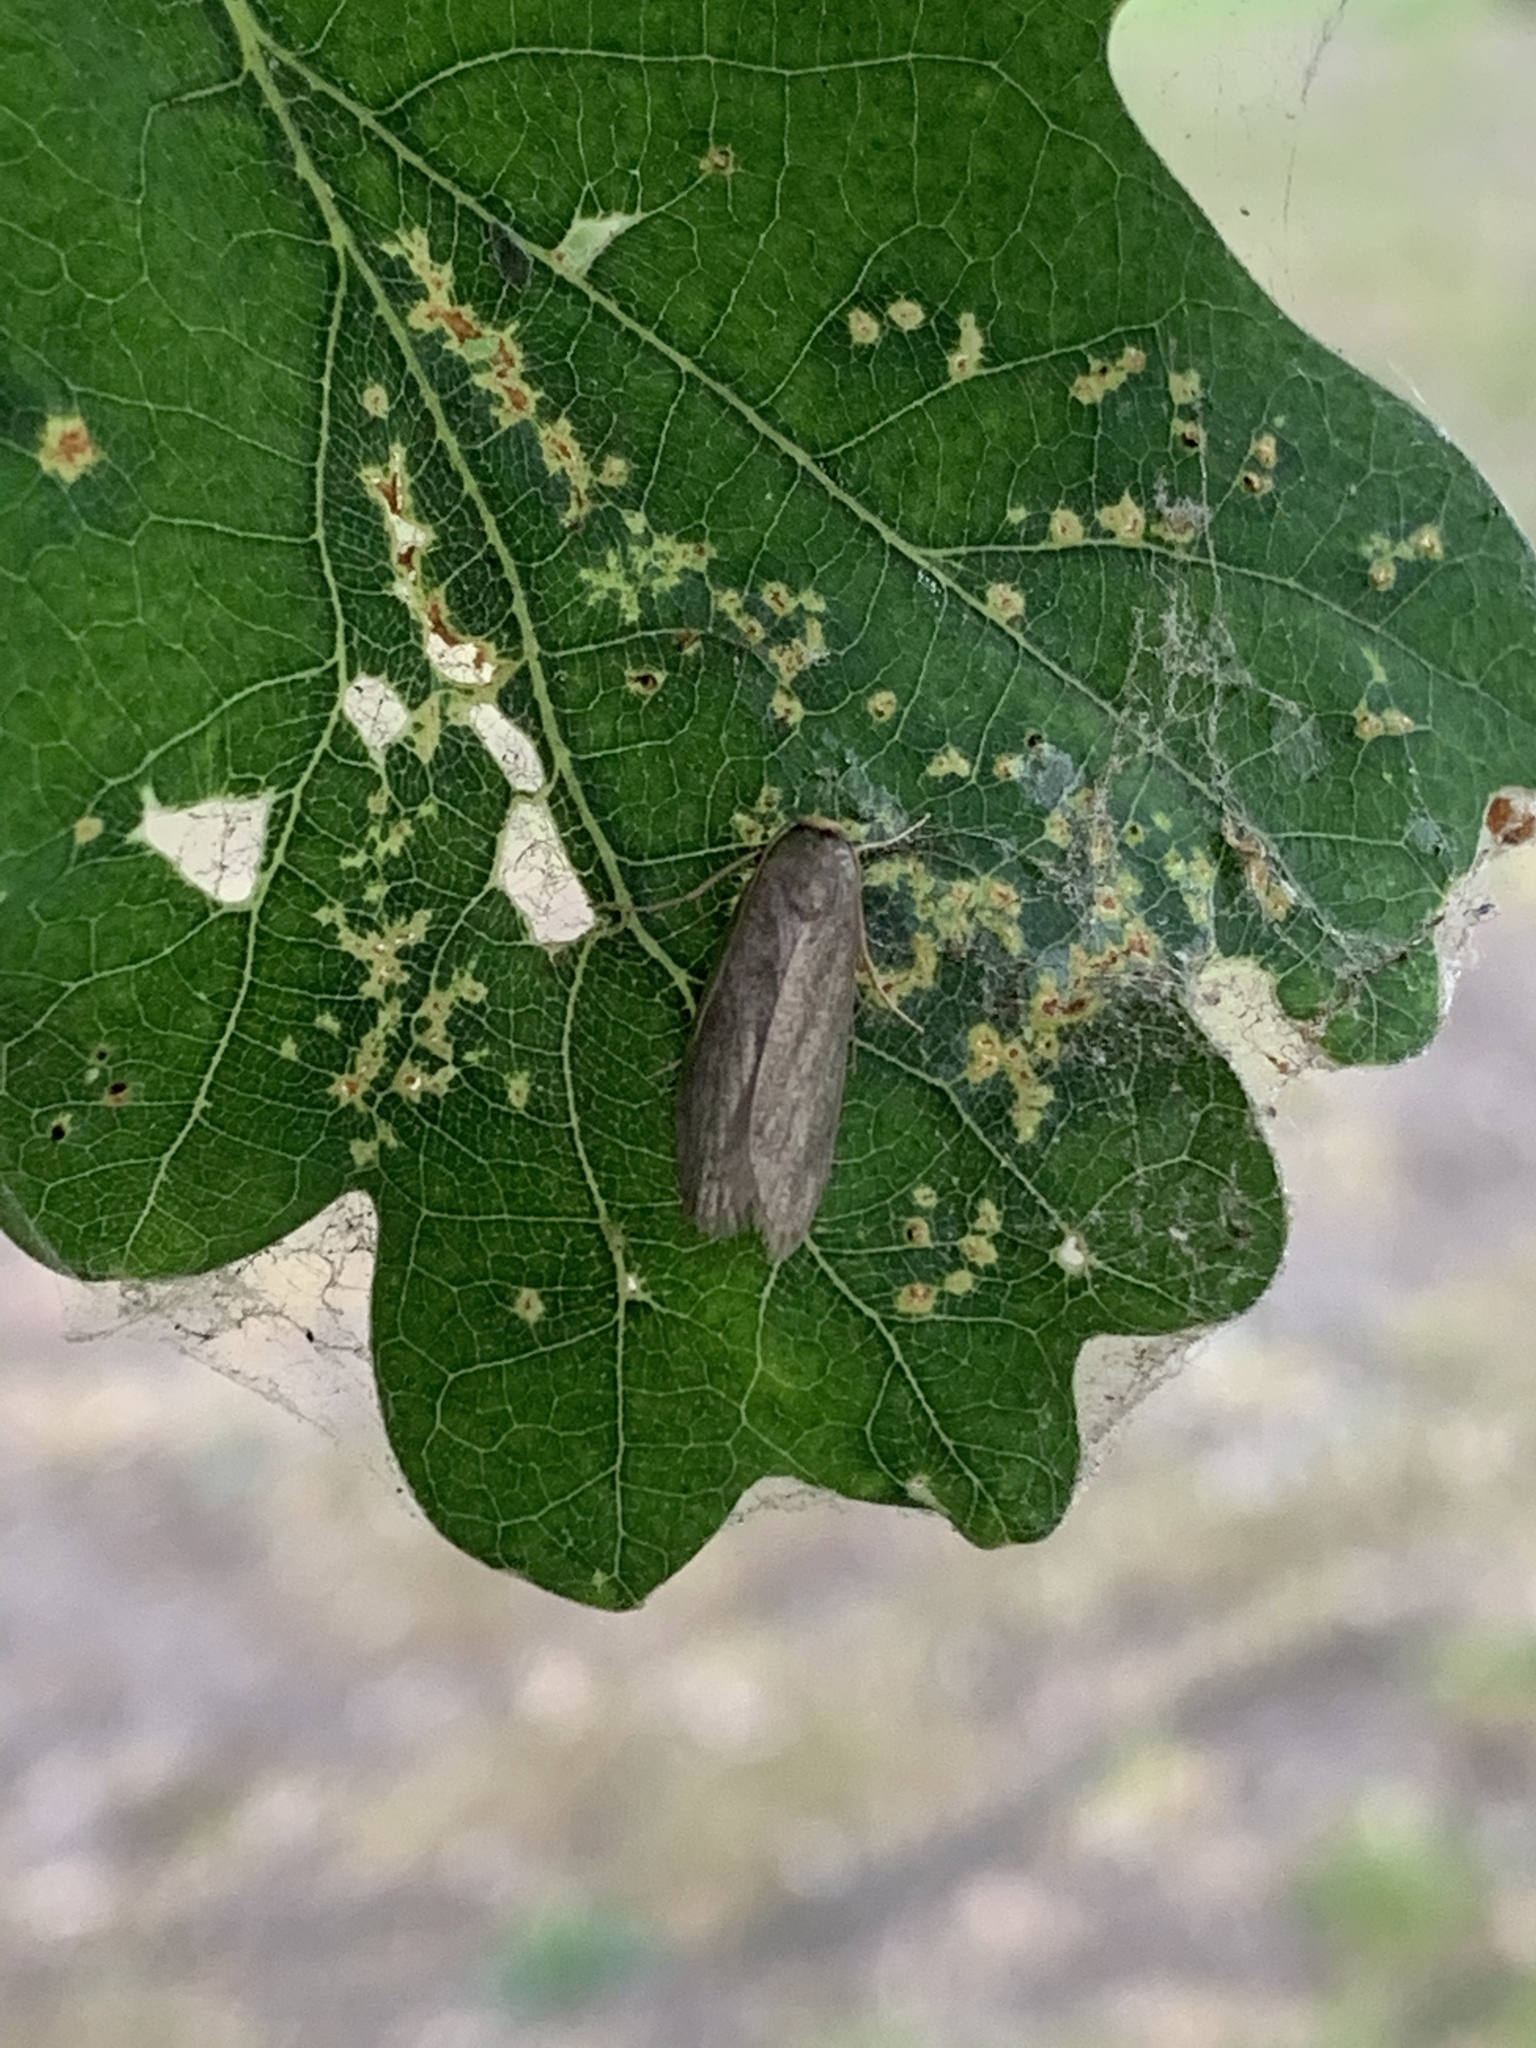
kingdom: Animalia
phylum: Arthropoda
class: Insecta
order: Lepidoptera
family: Pyralidae
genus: Achroia
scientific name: Achroia grisella
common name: Lesser wax moth
